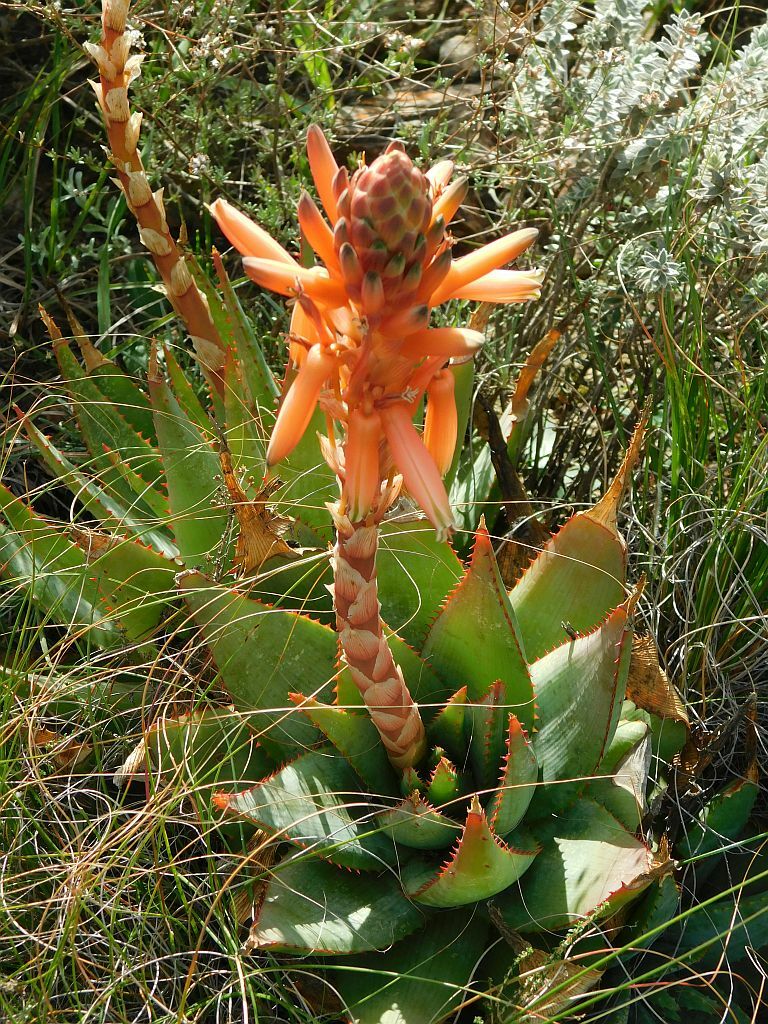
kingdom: Plantae
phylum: Tracheophyta
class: Liliopsida
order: Asparagales
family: Asphodelaceae
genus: Aloe
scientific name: Aloe glauca
